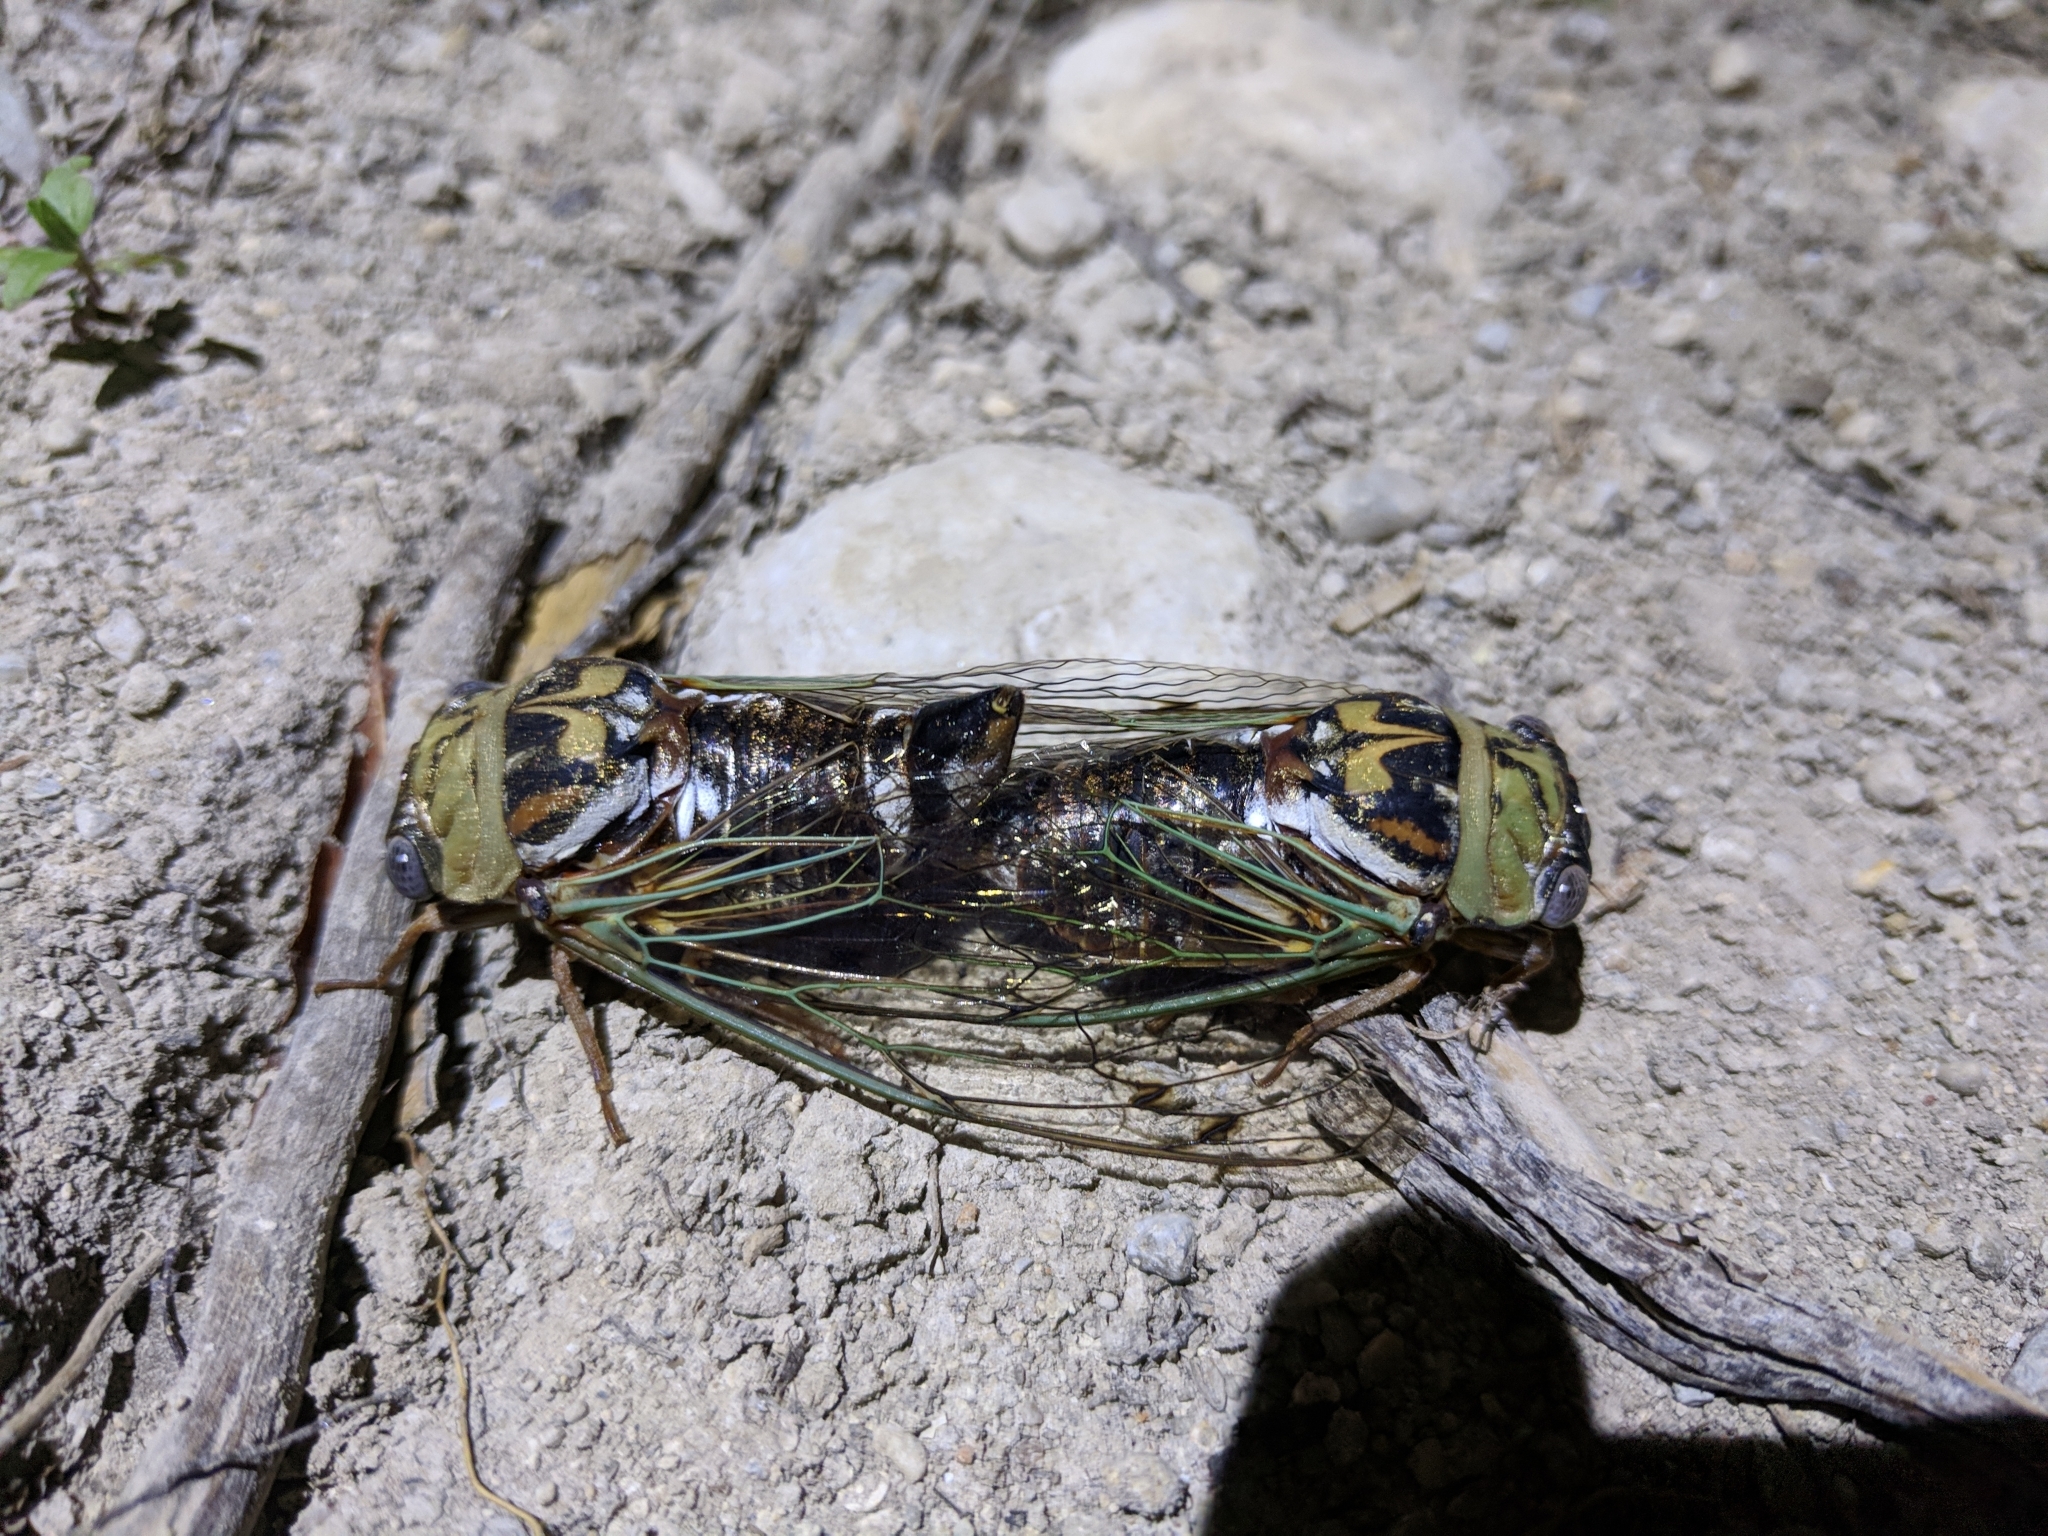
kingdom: Animalia
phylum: Arthropoda
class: Insecta
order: Hemiptera
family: Cicadidae
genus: Megatibicen
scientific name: Megatibicen resh
